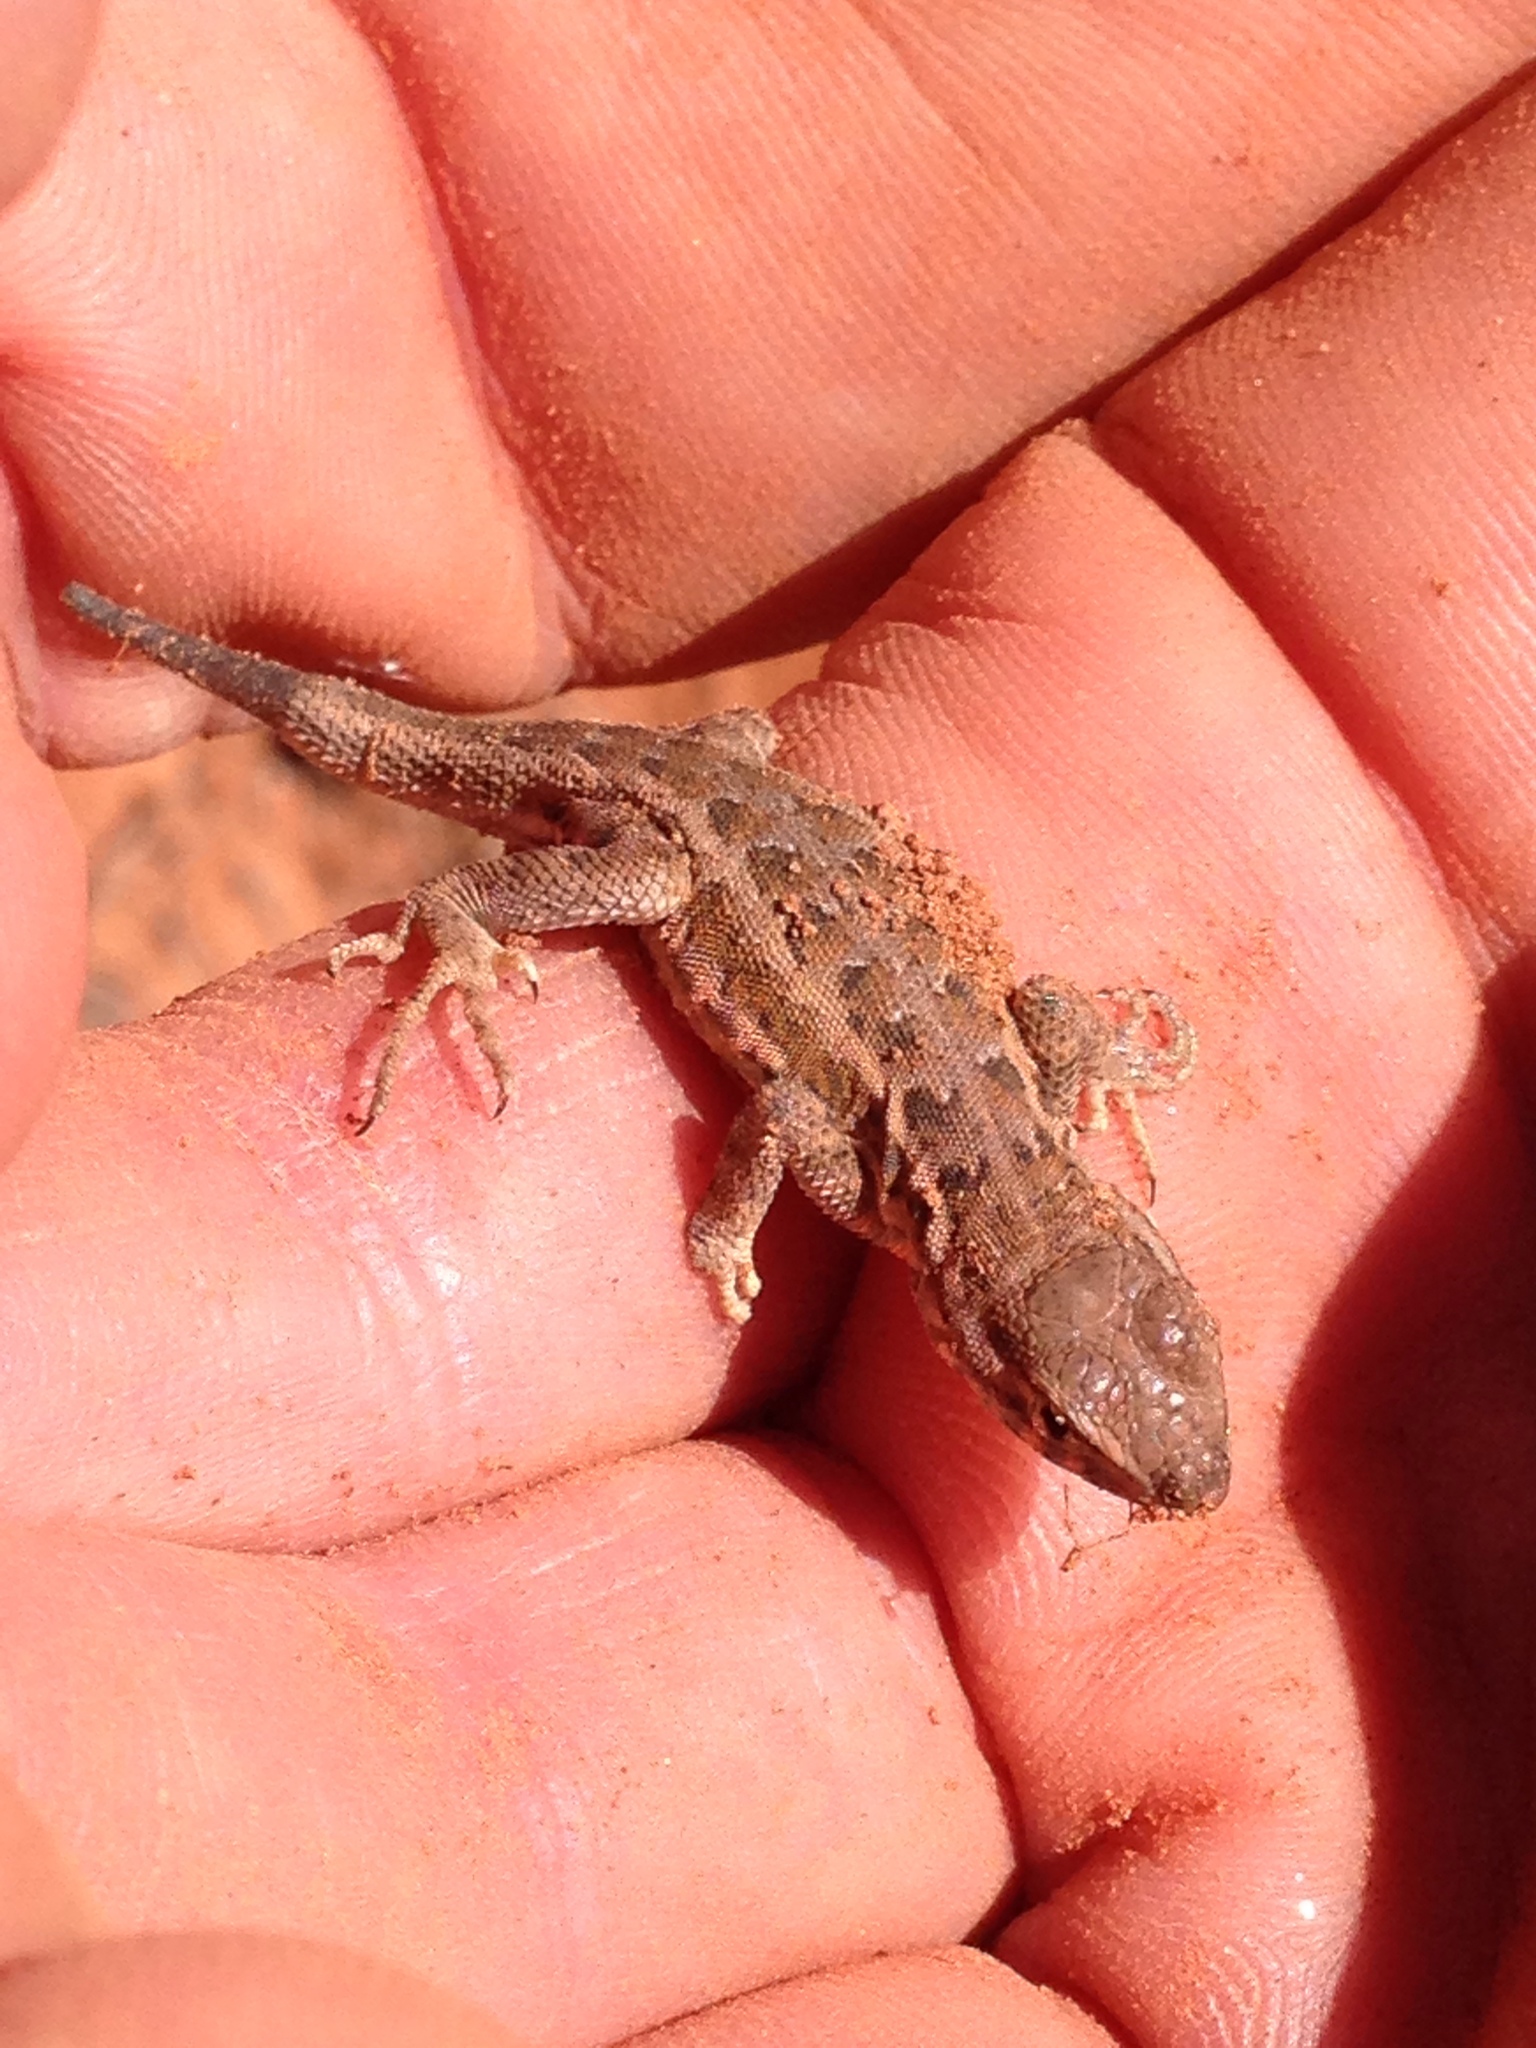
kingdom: Animalia
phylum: Chordata
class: Squamata
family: Phrynosomatidae
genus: Uta
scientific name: Uta stansburiana
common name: Side-blotched lizard
